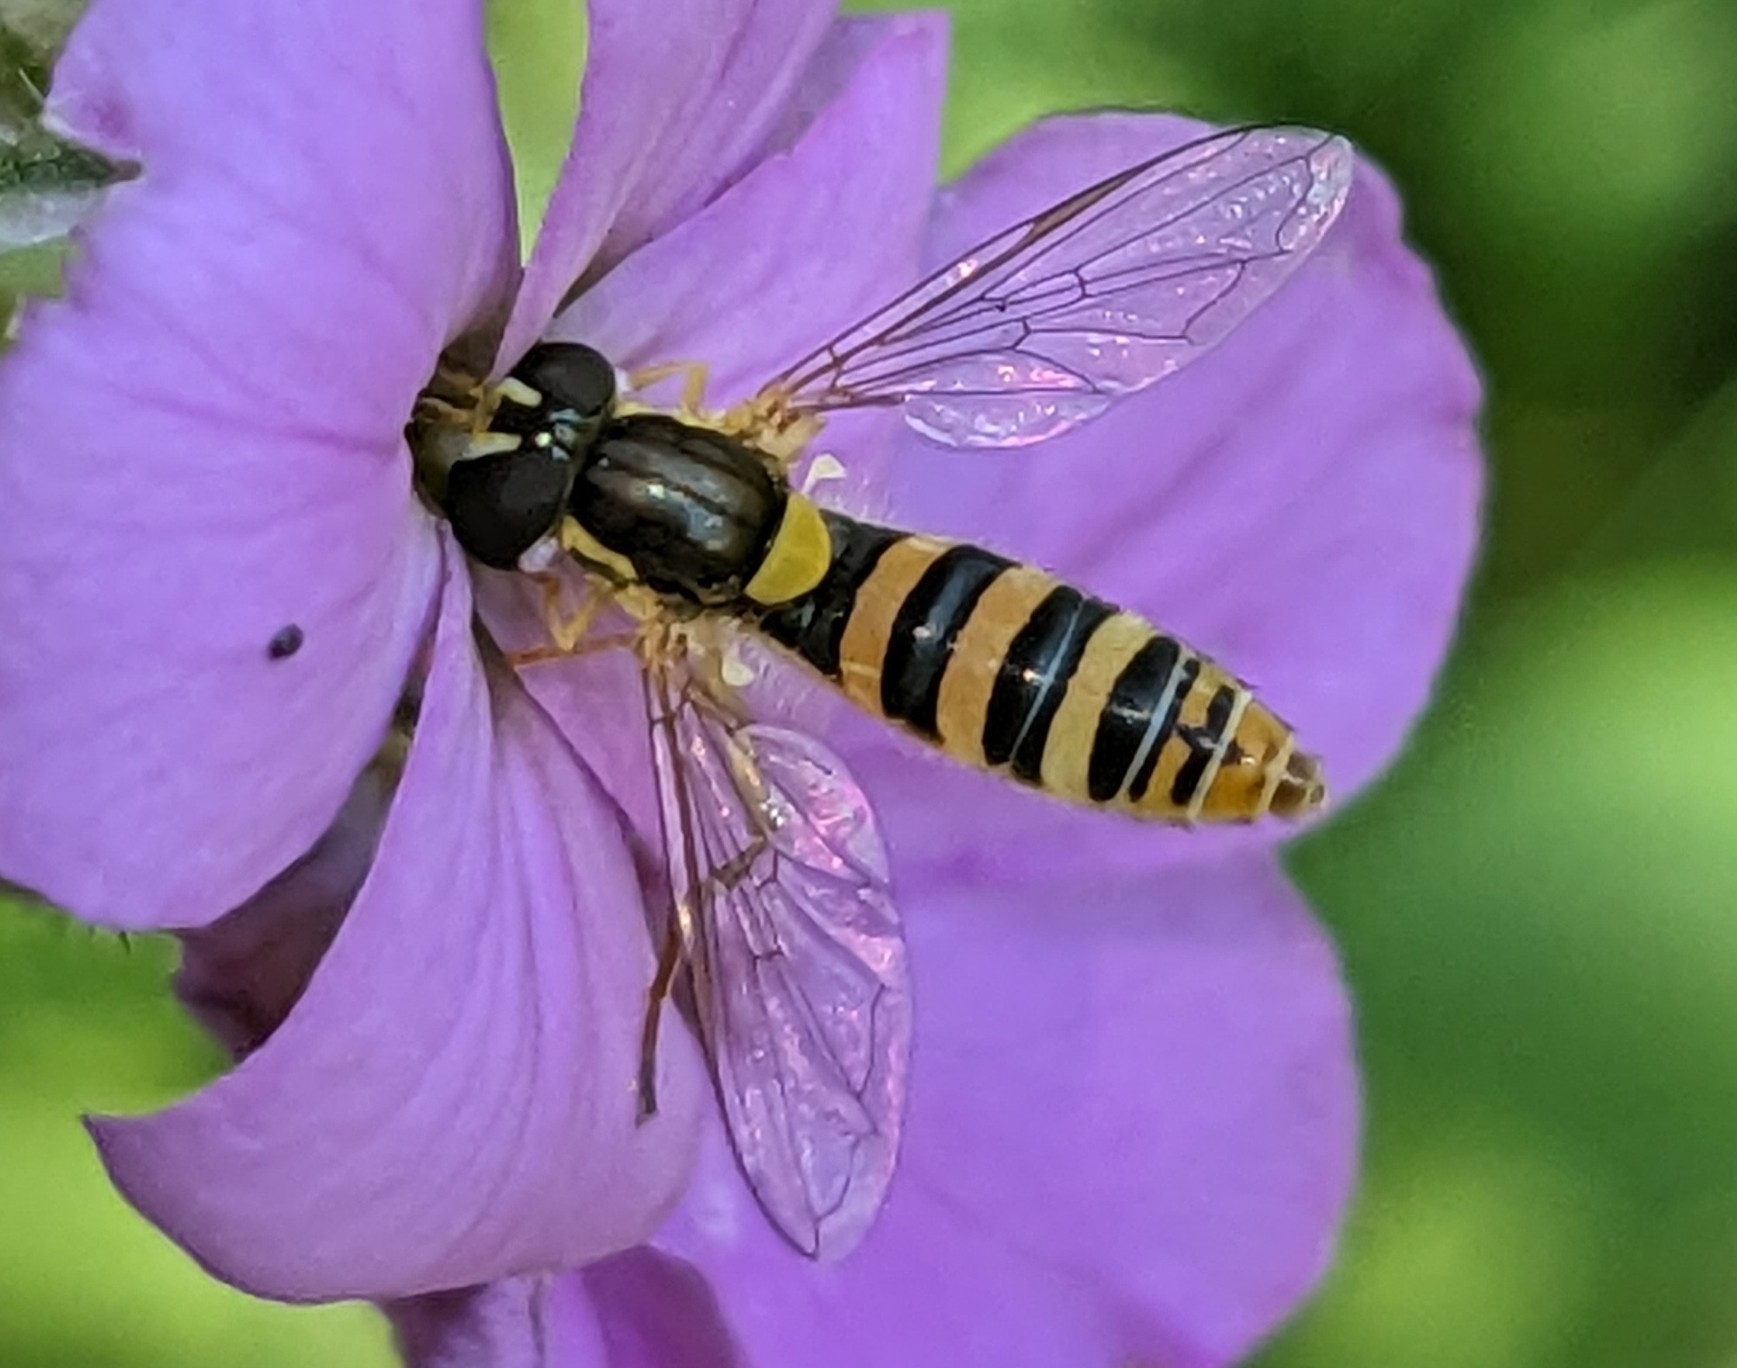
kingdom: Animalia
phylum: Arthropoda
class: Insecta
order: Diptera
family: Syrphidae
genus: Sphaerophoria
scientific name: Sphaerophoria contigua
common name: Tufted globetail
